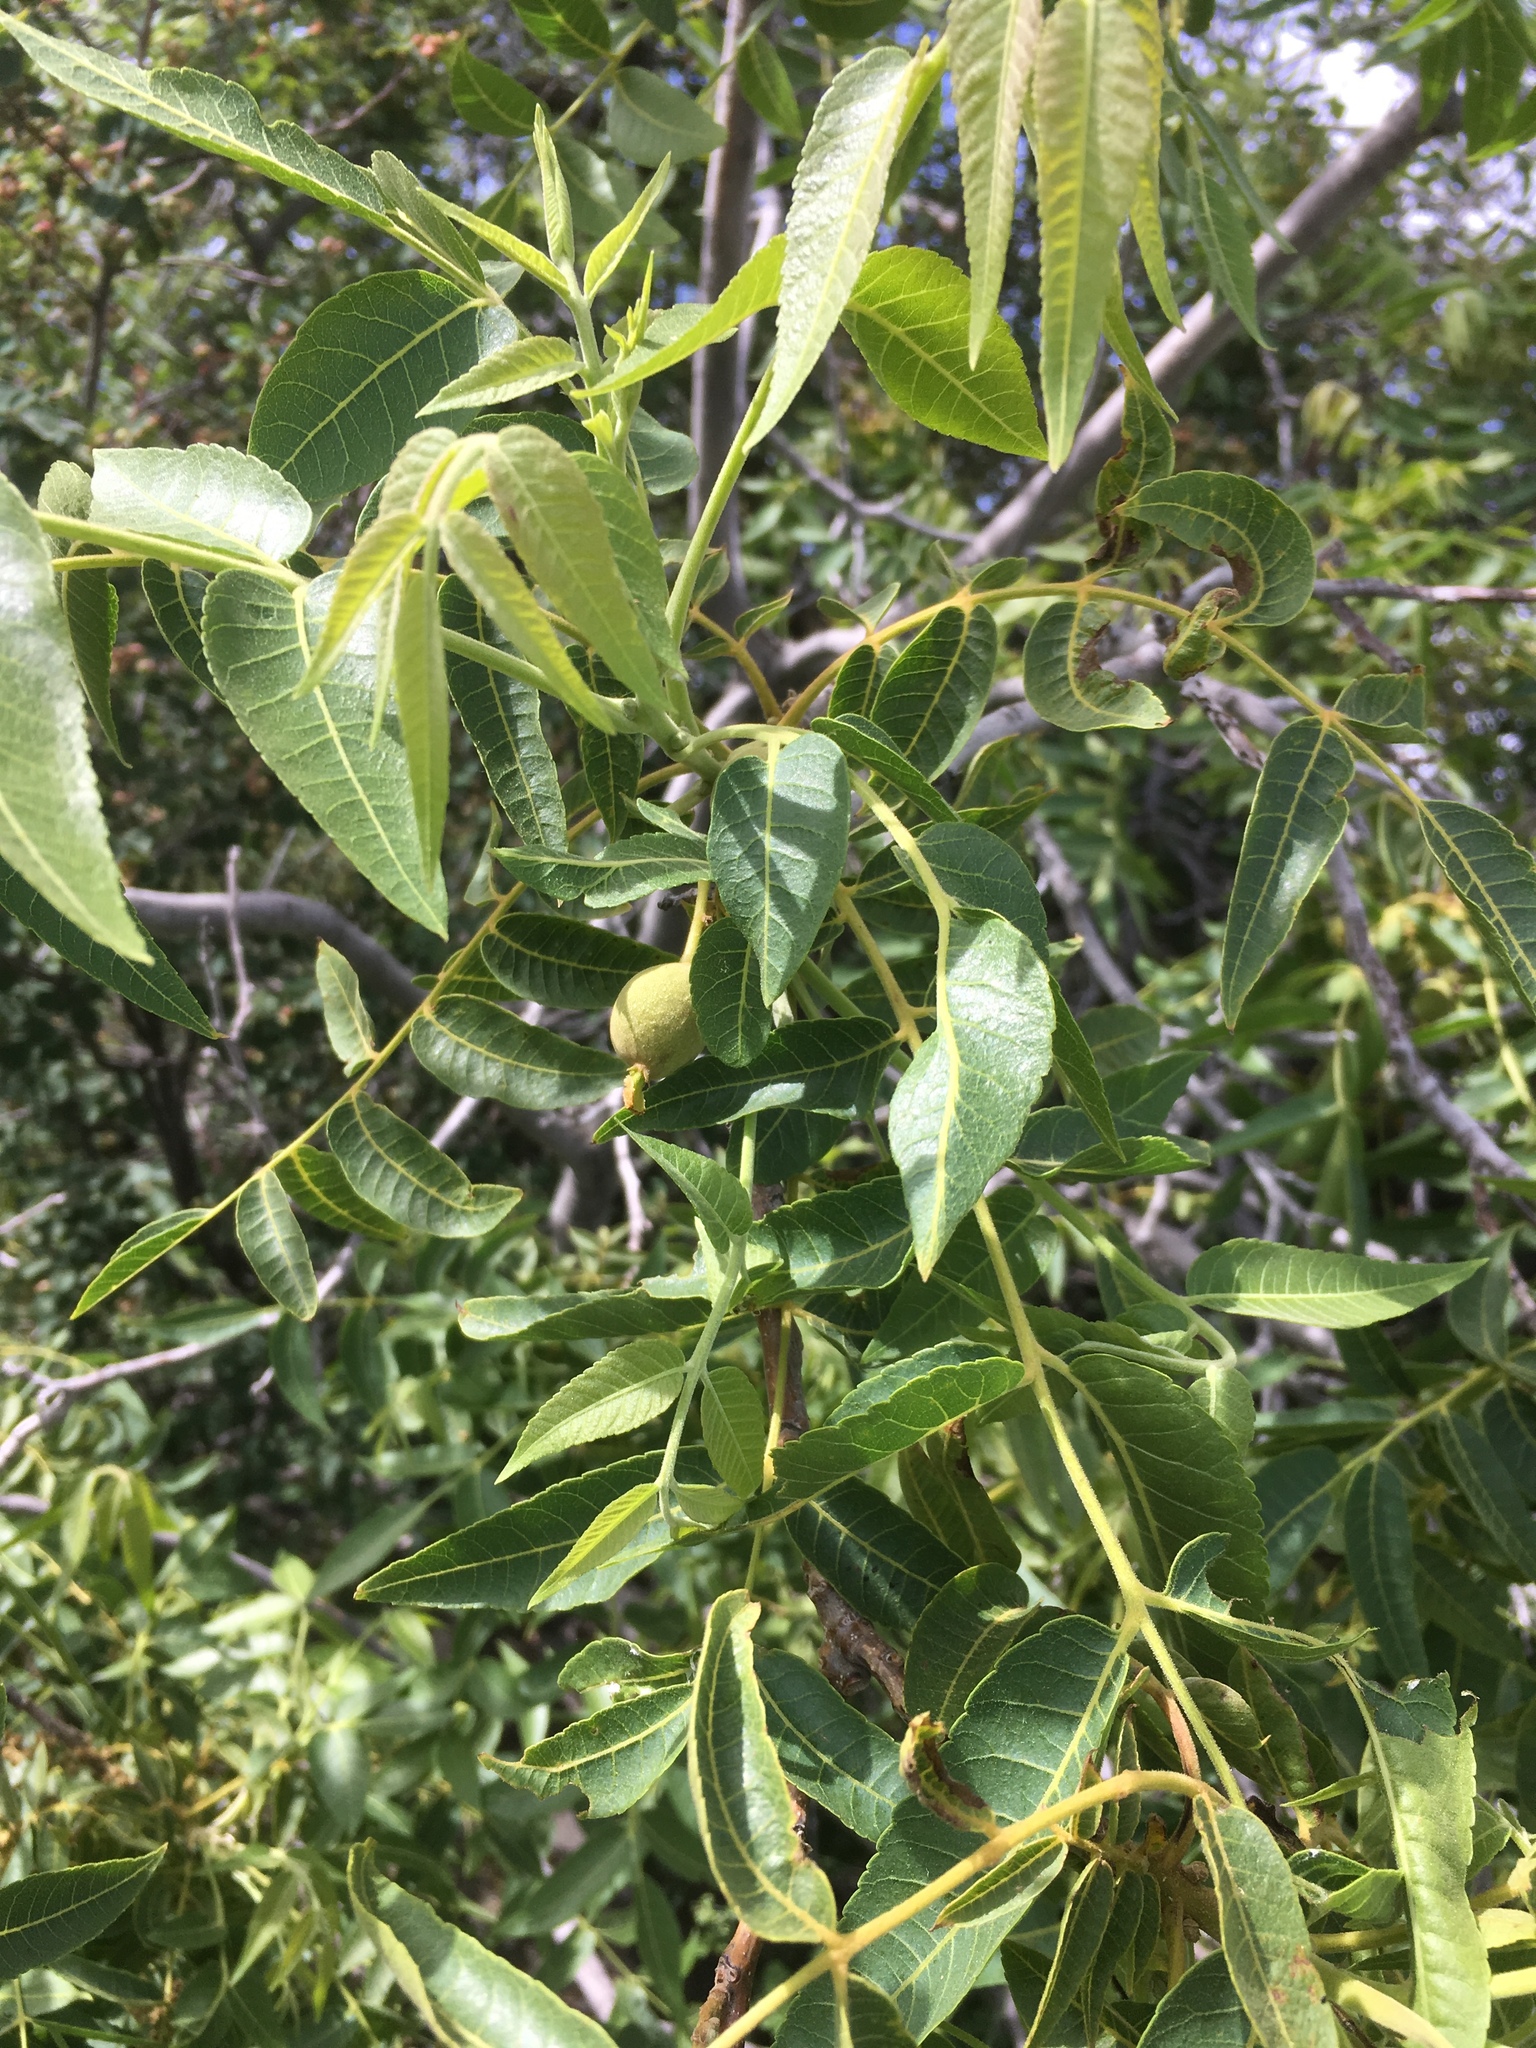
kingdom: Plantae
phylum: Tracheophyta
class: Magnoliopsida
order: Fagales
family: Juglandaceae
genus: Juglans
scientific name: Juglans major
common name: Arizona walnut
